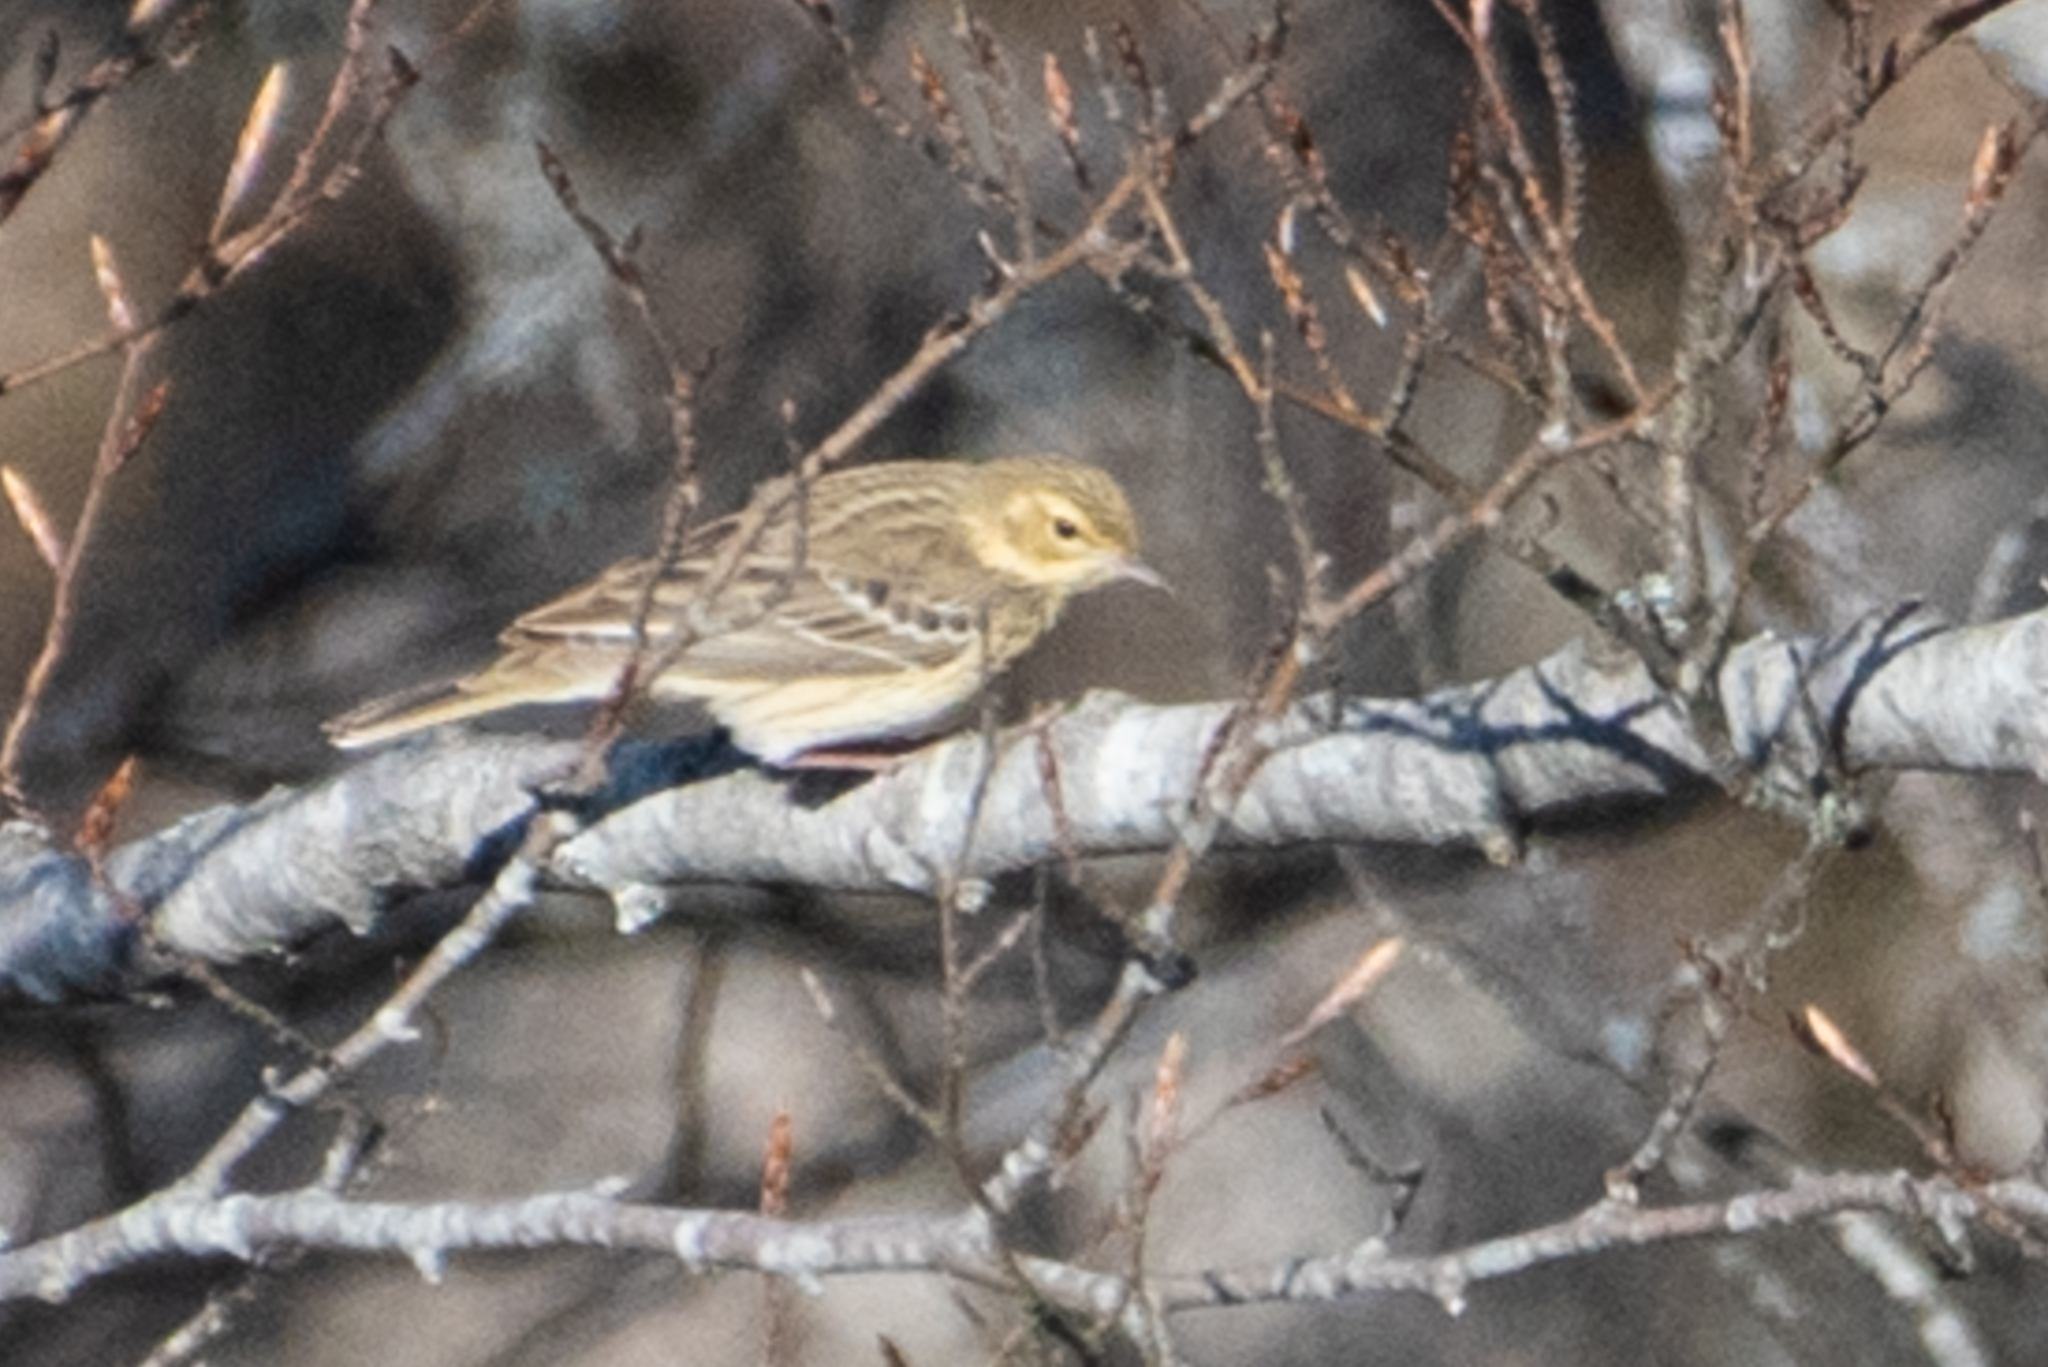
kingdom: Animalia
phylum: Chordata
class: Aves
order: Passeriformes
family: Motacillidae
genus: Anthus
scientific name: Anthus trivialis
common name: Tree pipit
